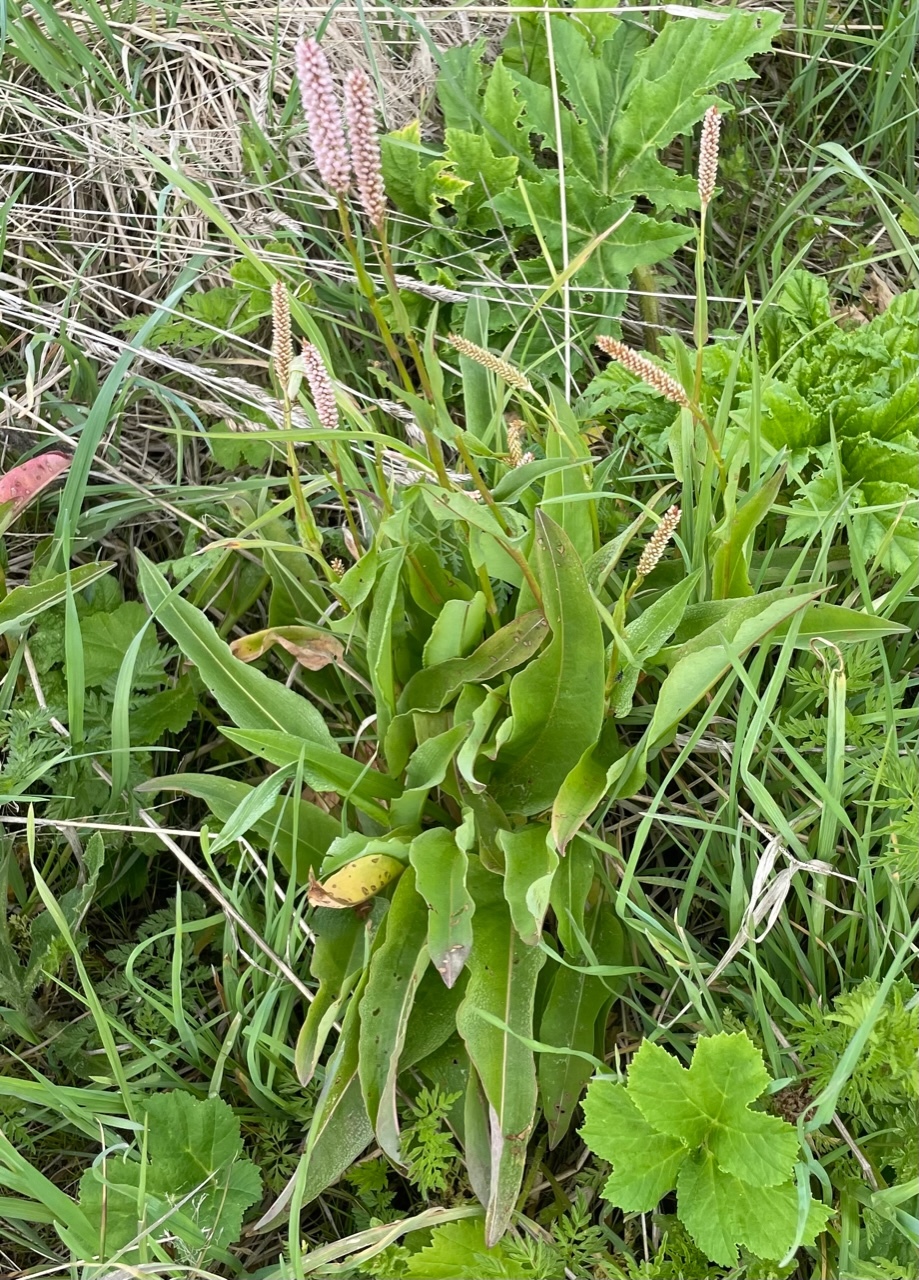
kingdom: Plantae
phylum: Tracheophyta
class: Magnoliopsida
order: Caryophyllales
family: Polygonaceae
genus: Bistorta
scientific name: Bistorta officinalis
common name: Common bistort
